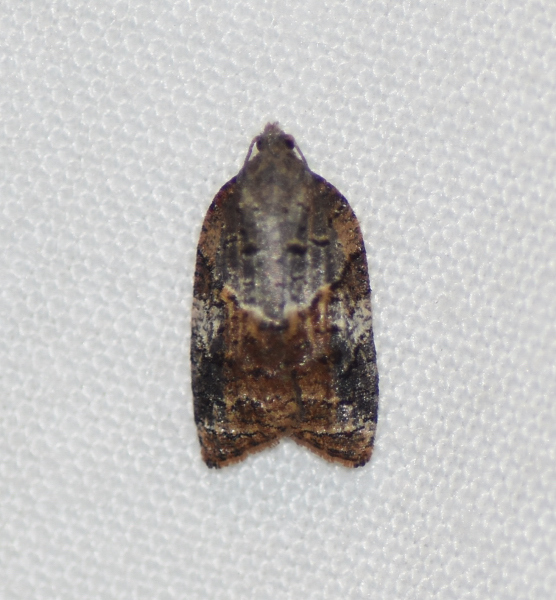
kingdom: Animalia
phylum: Arthropoda
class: Insecta
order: Lepidoptera
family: Tortricidae
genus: Platynota
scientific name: Platynota idaeusalis
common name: Tufted apple bud moth
